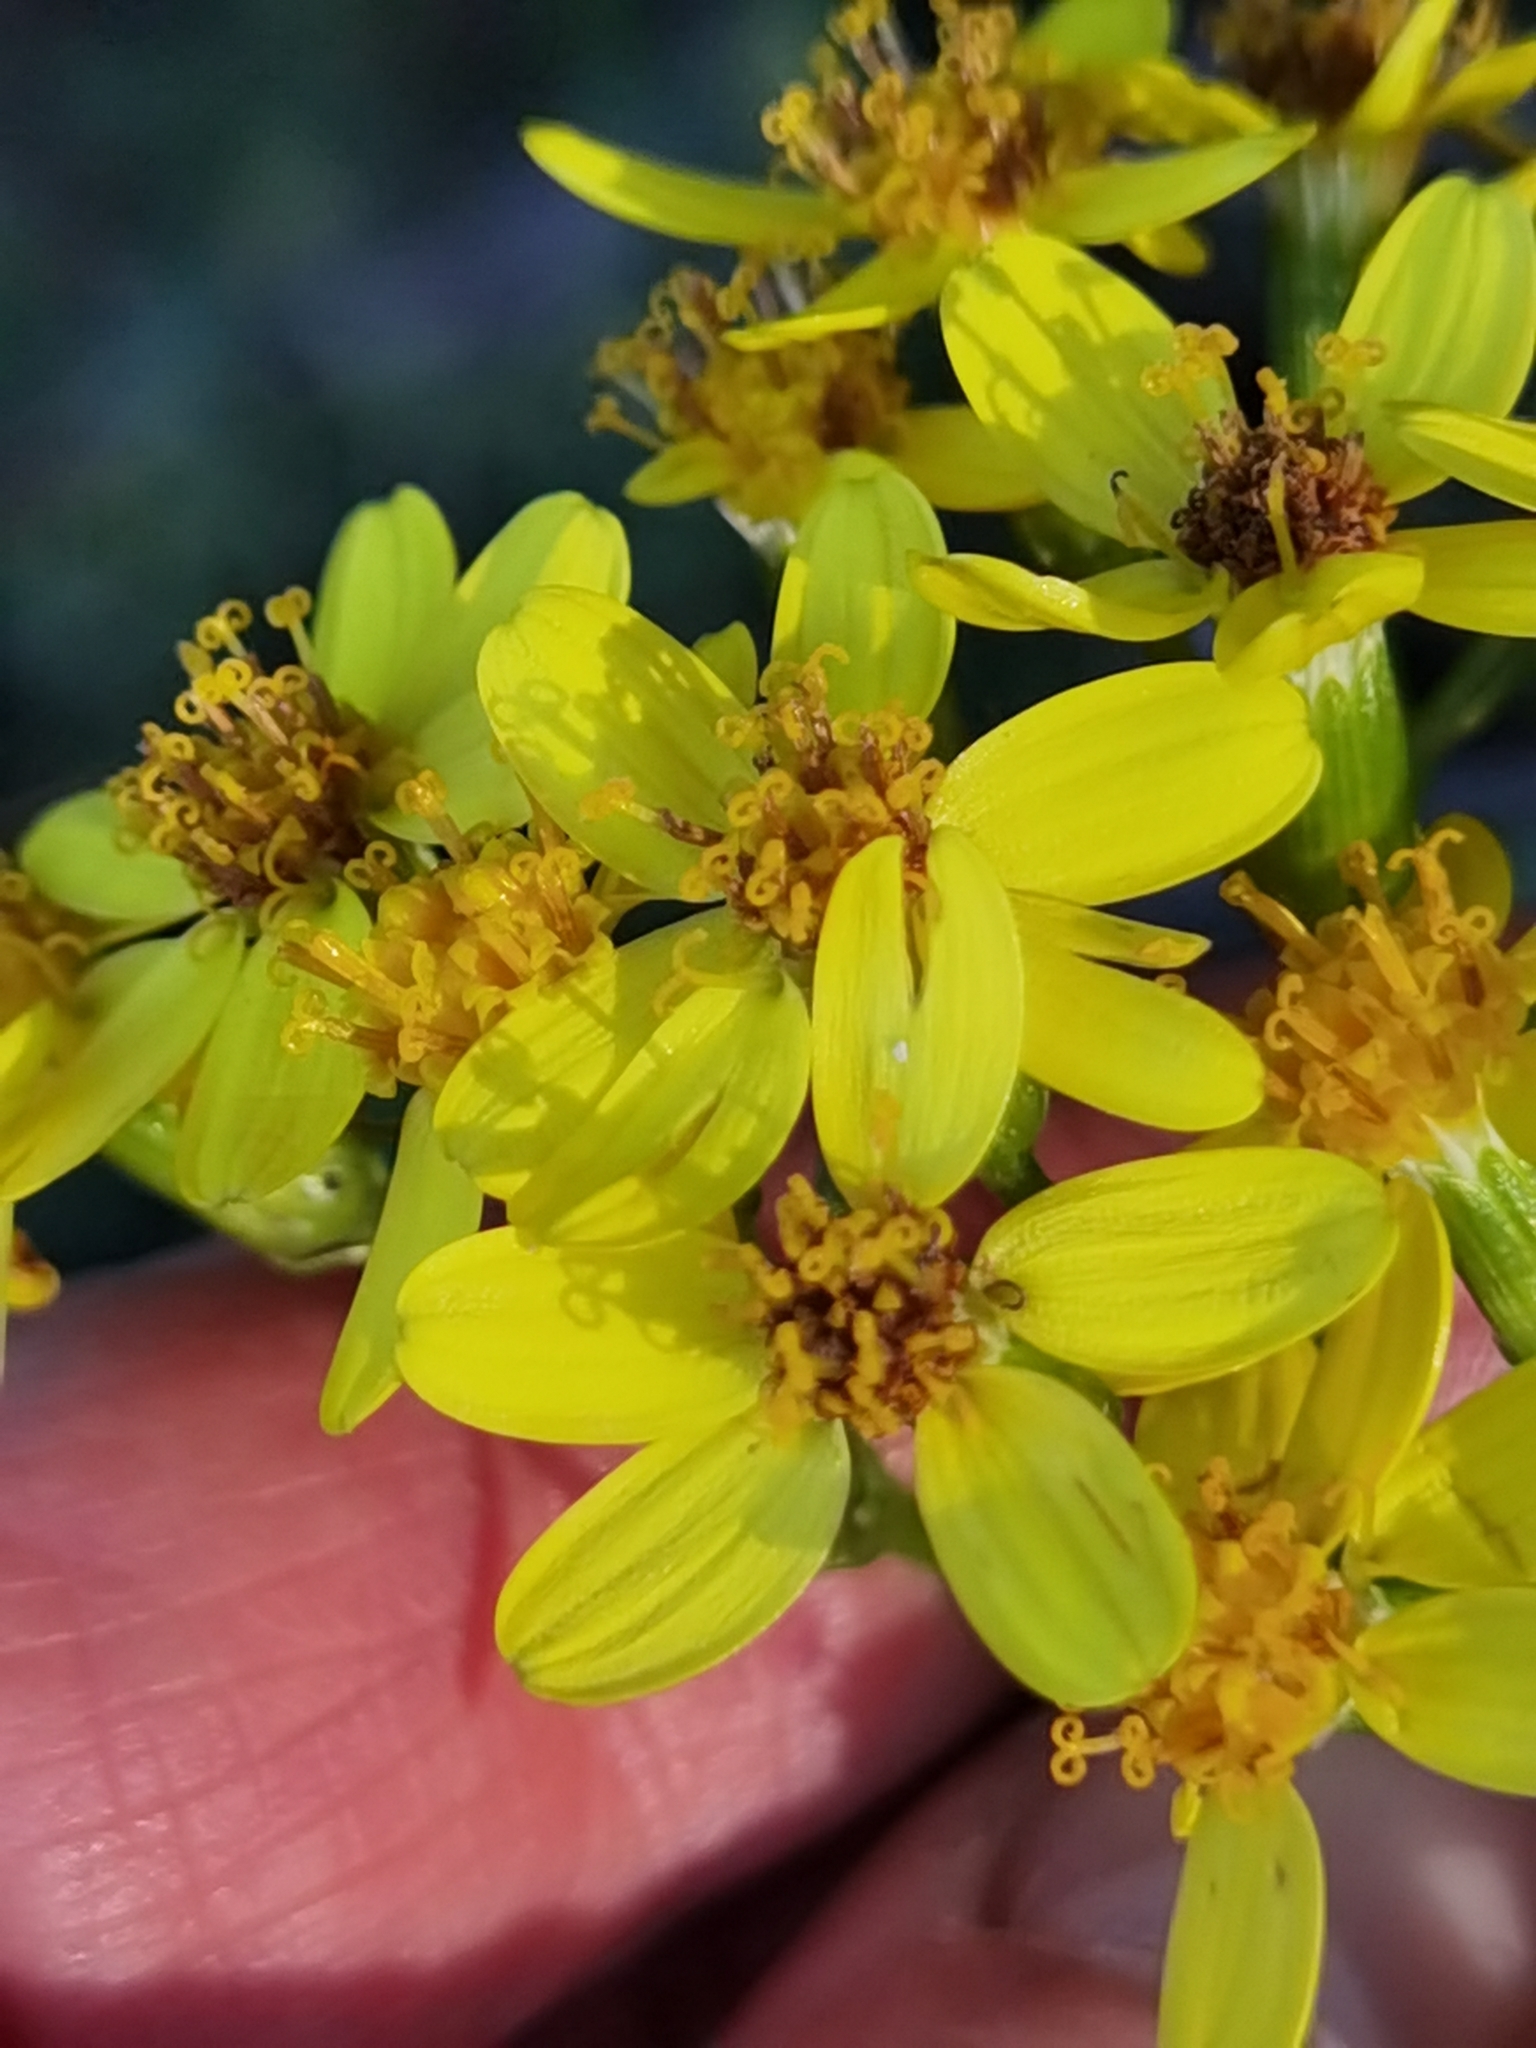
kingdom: Plantae
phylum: Tracheophyta
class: Magnoliopsida
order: Asterales
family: Asteraceae
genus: Senecio
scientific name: Senecio angulatus
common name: Climbing groundsel
